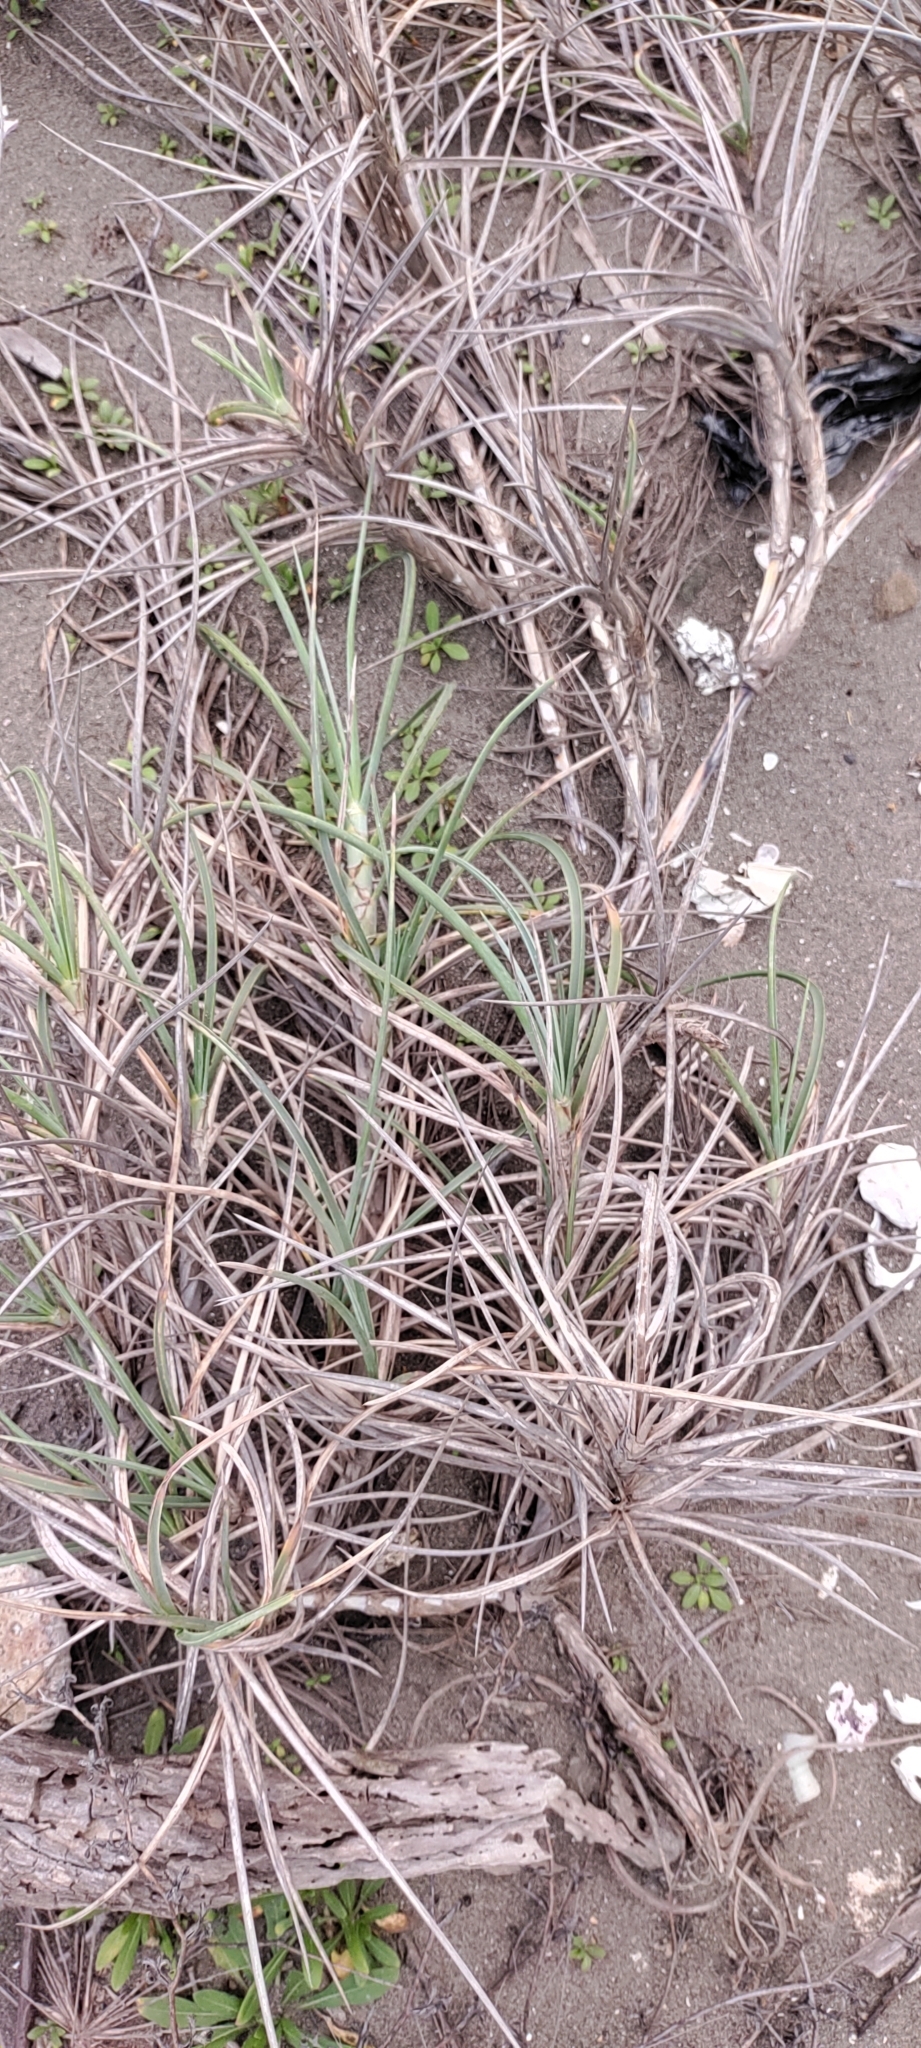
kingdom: Plantae
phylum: Tracheophyta
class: Liliopsida
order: Poales
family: Poaceae
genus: Spinifex
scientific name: Spinifex littoreus
